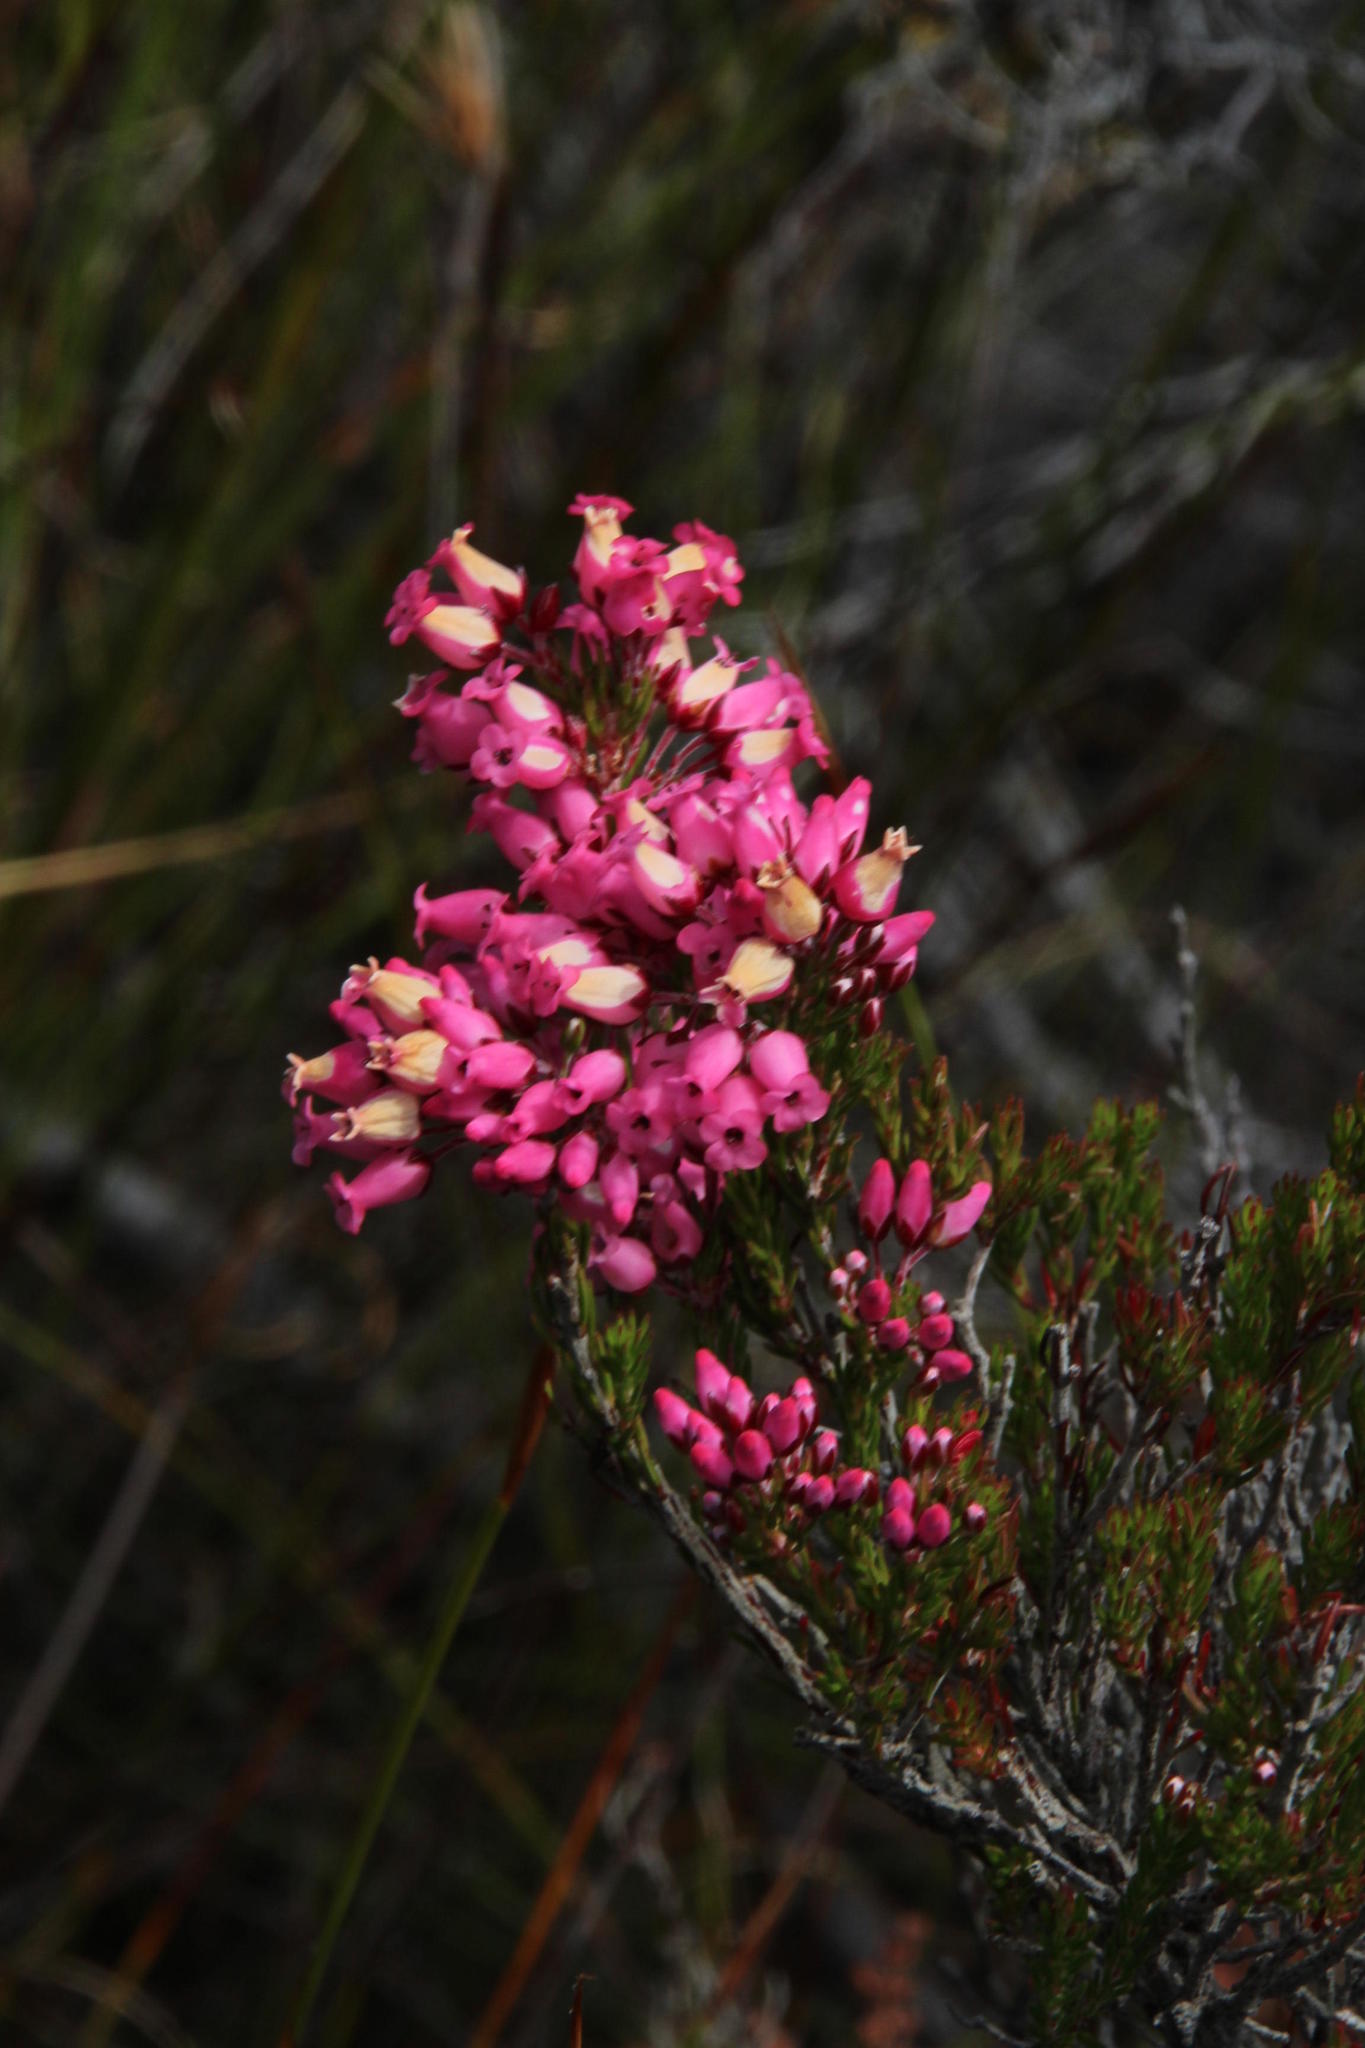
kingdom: Plantae
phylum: Tracheophyta
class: Magnoliopsida
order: Ericales
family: Ericaceae
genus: Erica
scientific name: Erica tenella
